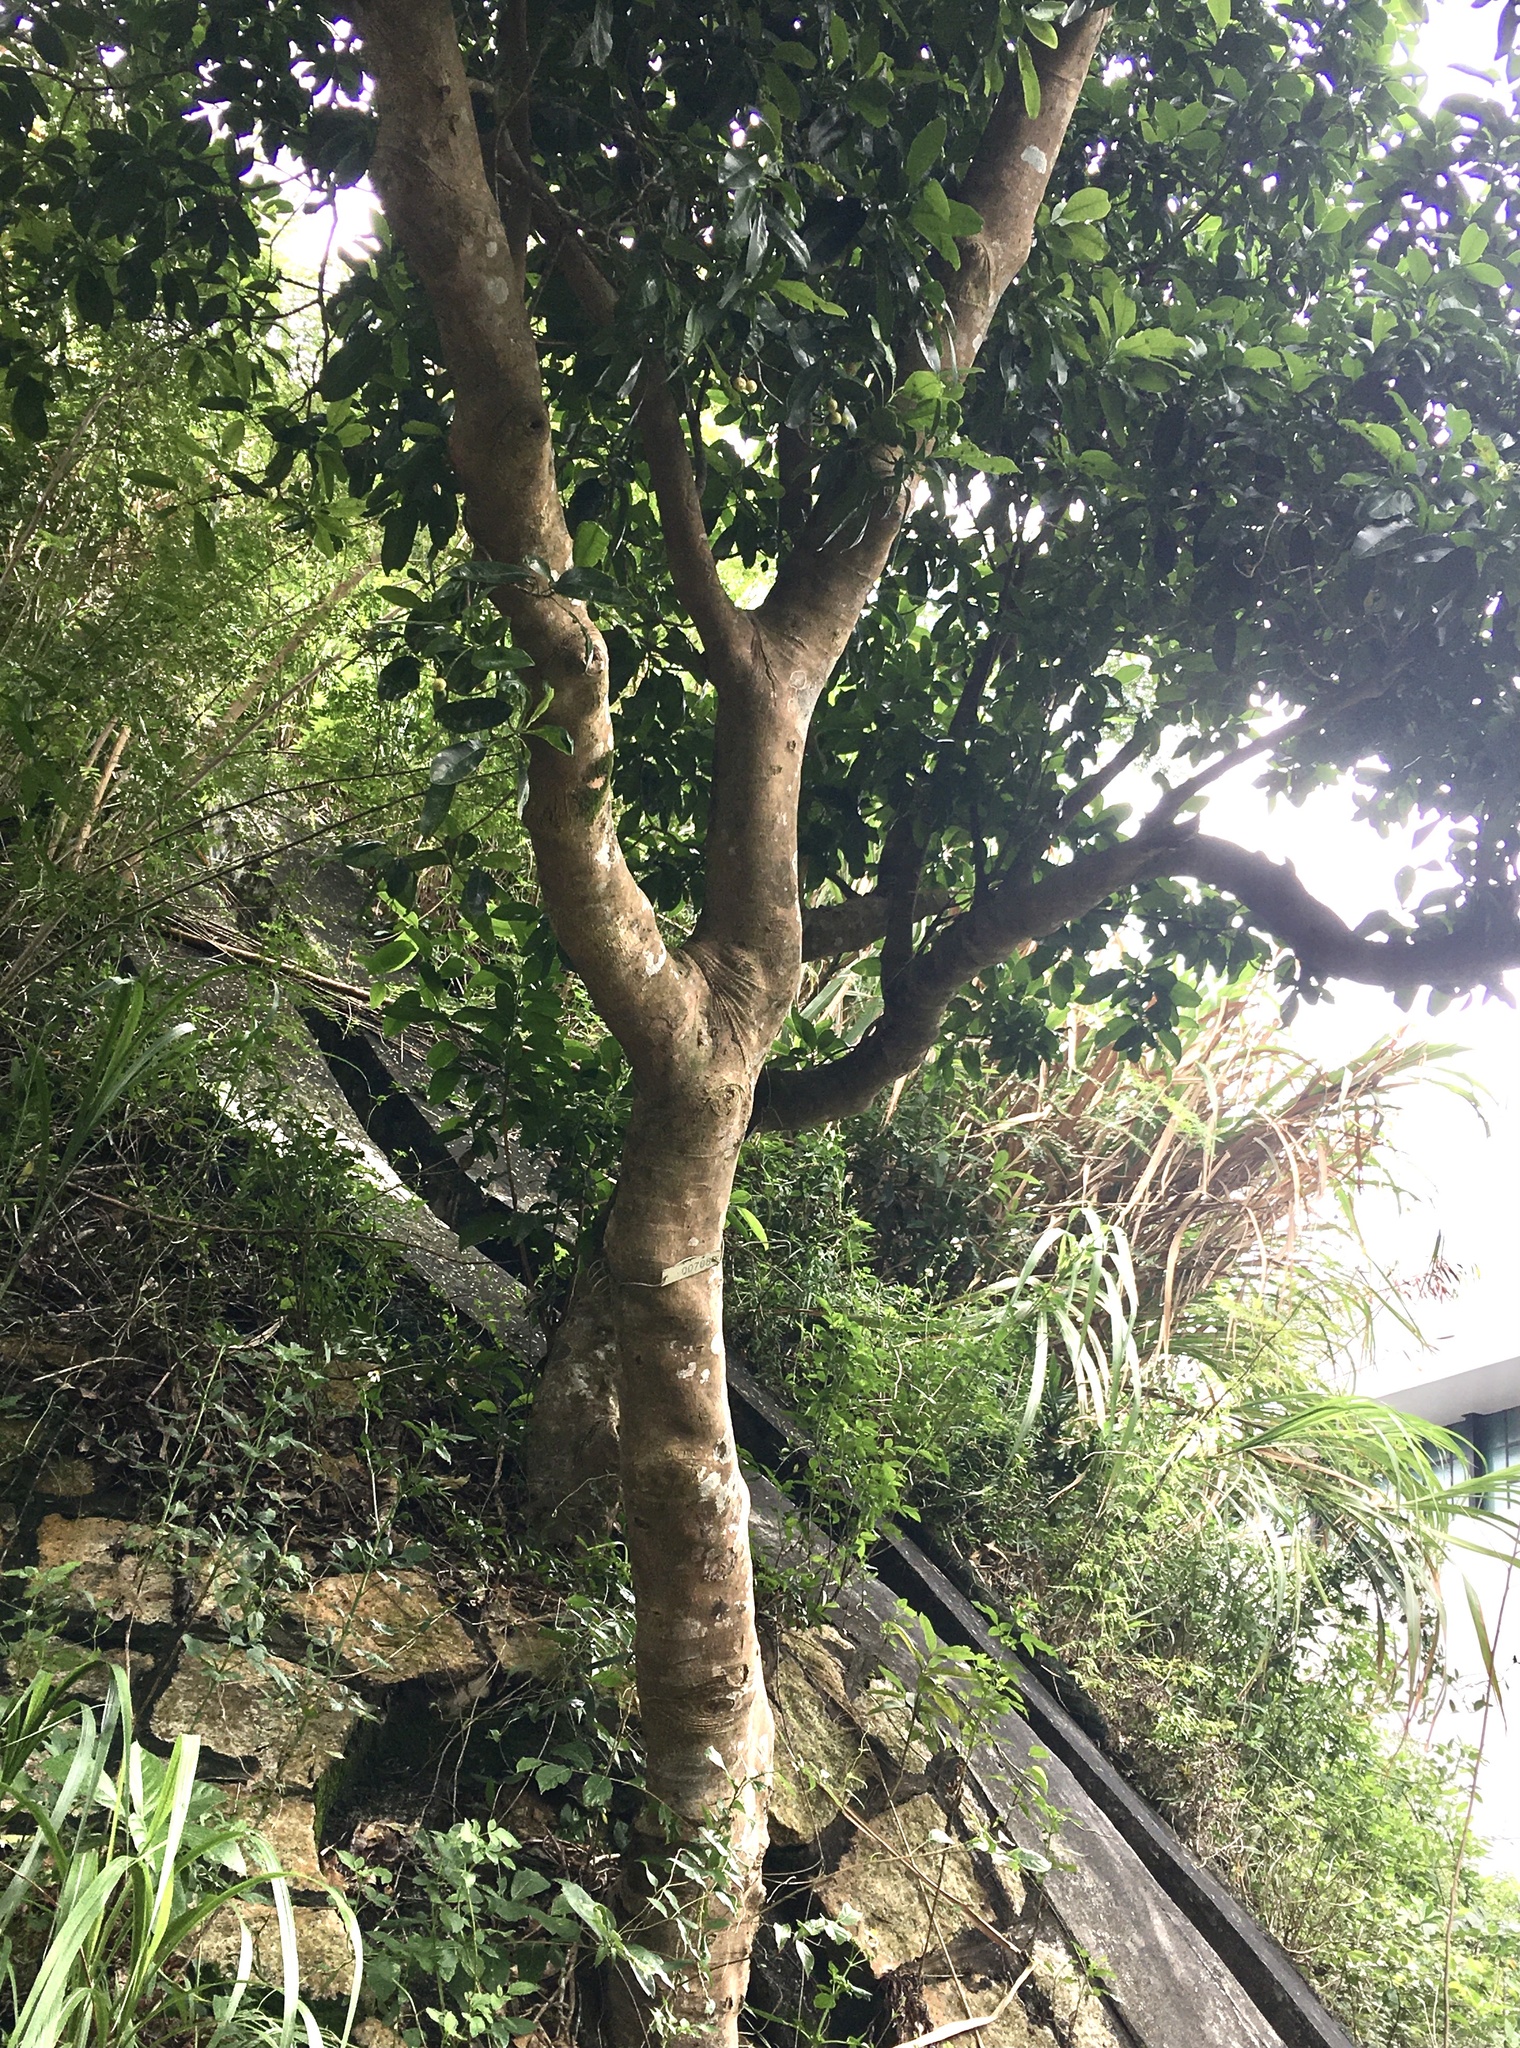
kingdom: Plantae
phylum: Tracheophyta
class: Magnoliopsida
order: Sapindales
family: Rutaceae
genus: Acronychia
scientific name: Acronychia pedunculata
